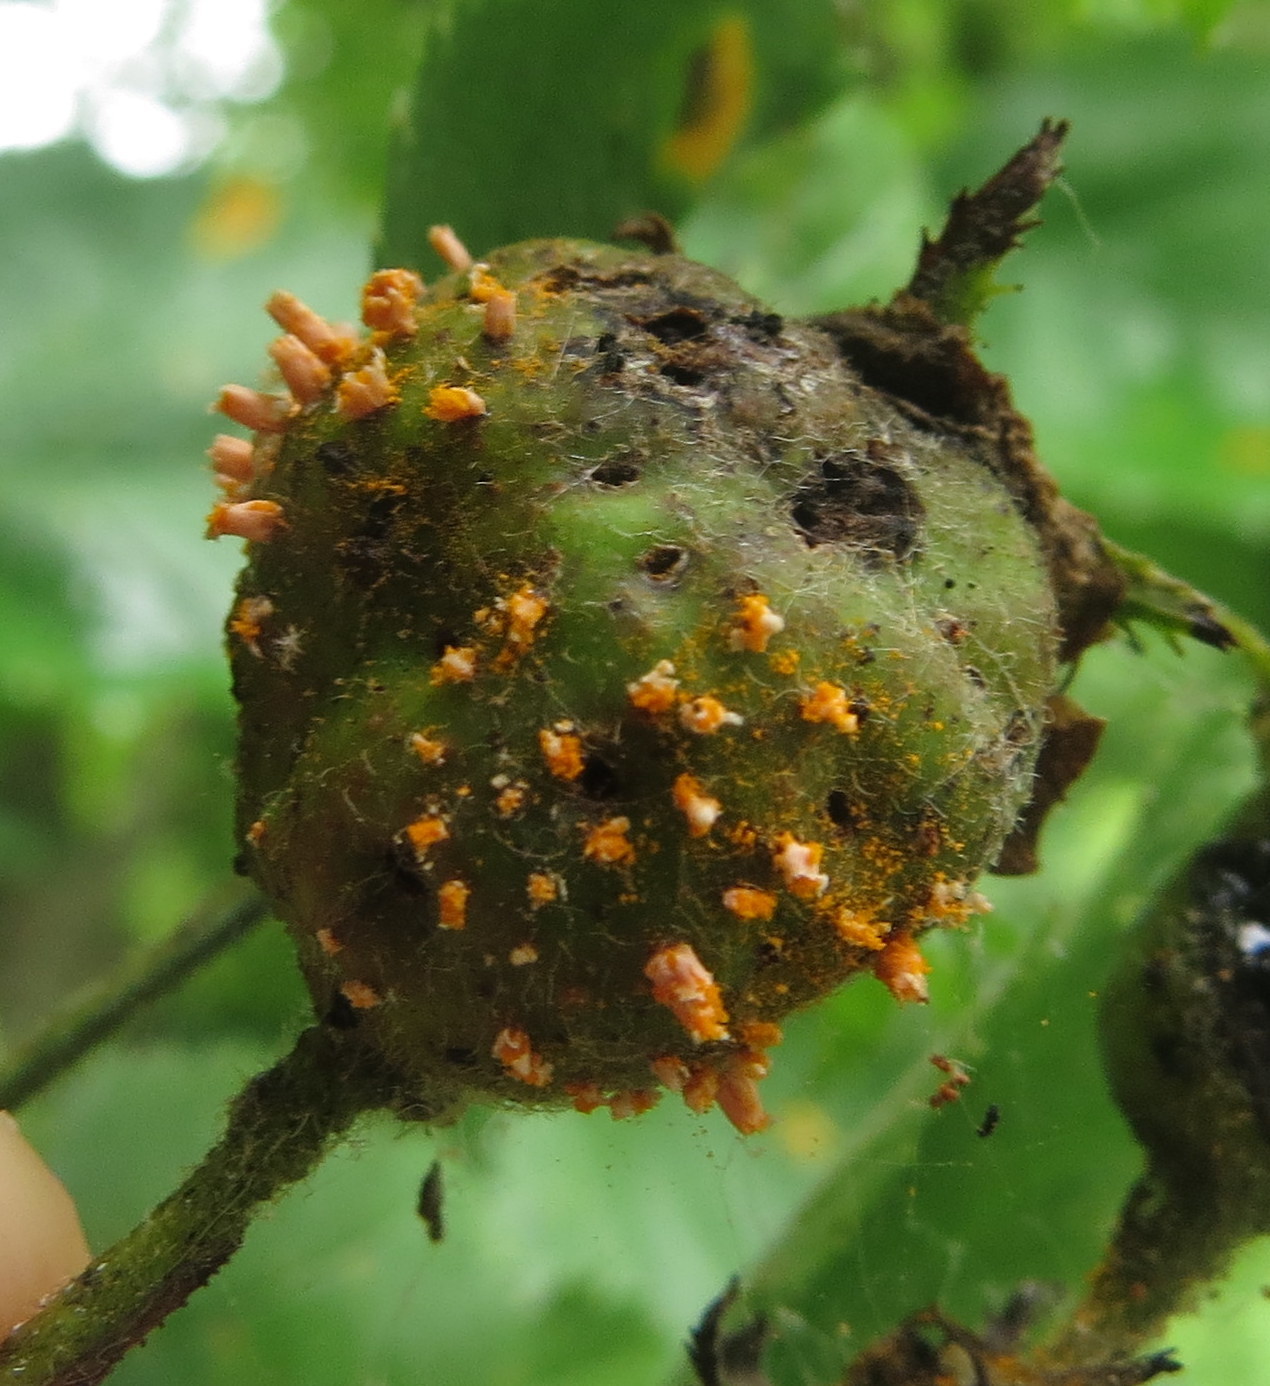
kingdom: Fungi
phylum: Basidiomycota
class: Pucciniomycetes
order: Pucciniales
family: Gymnosporangiaceae
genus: Gymnosporangium
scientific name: Gymnosporangium clavipes
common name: Quince rust
